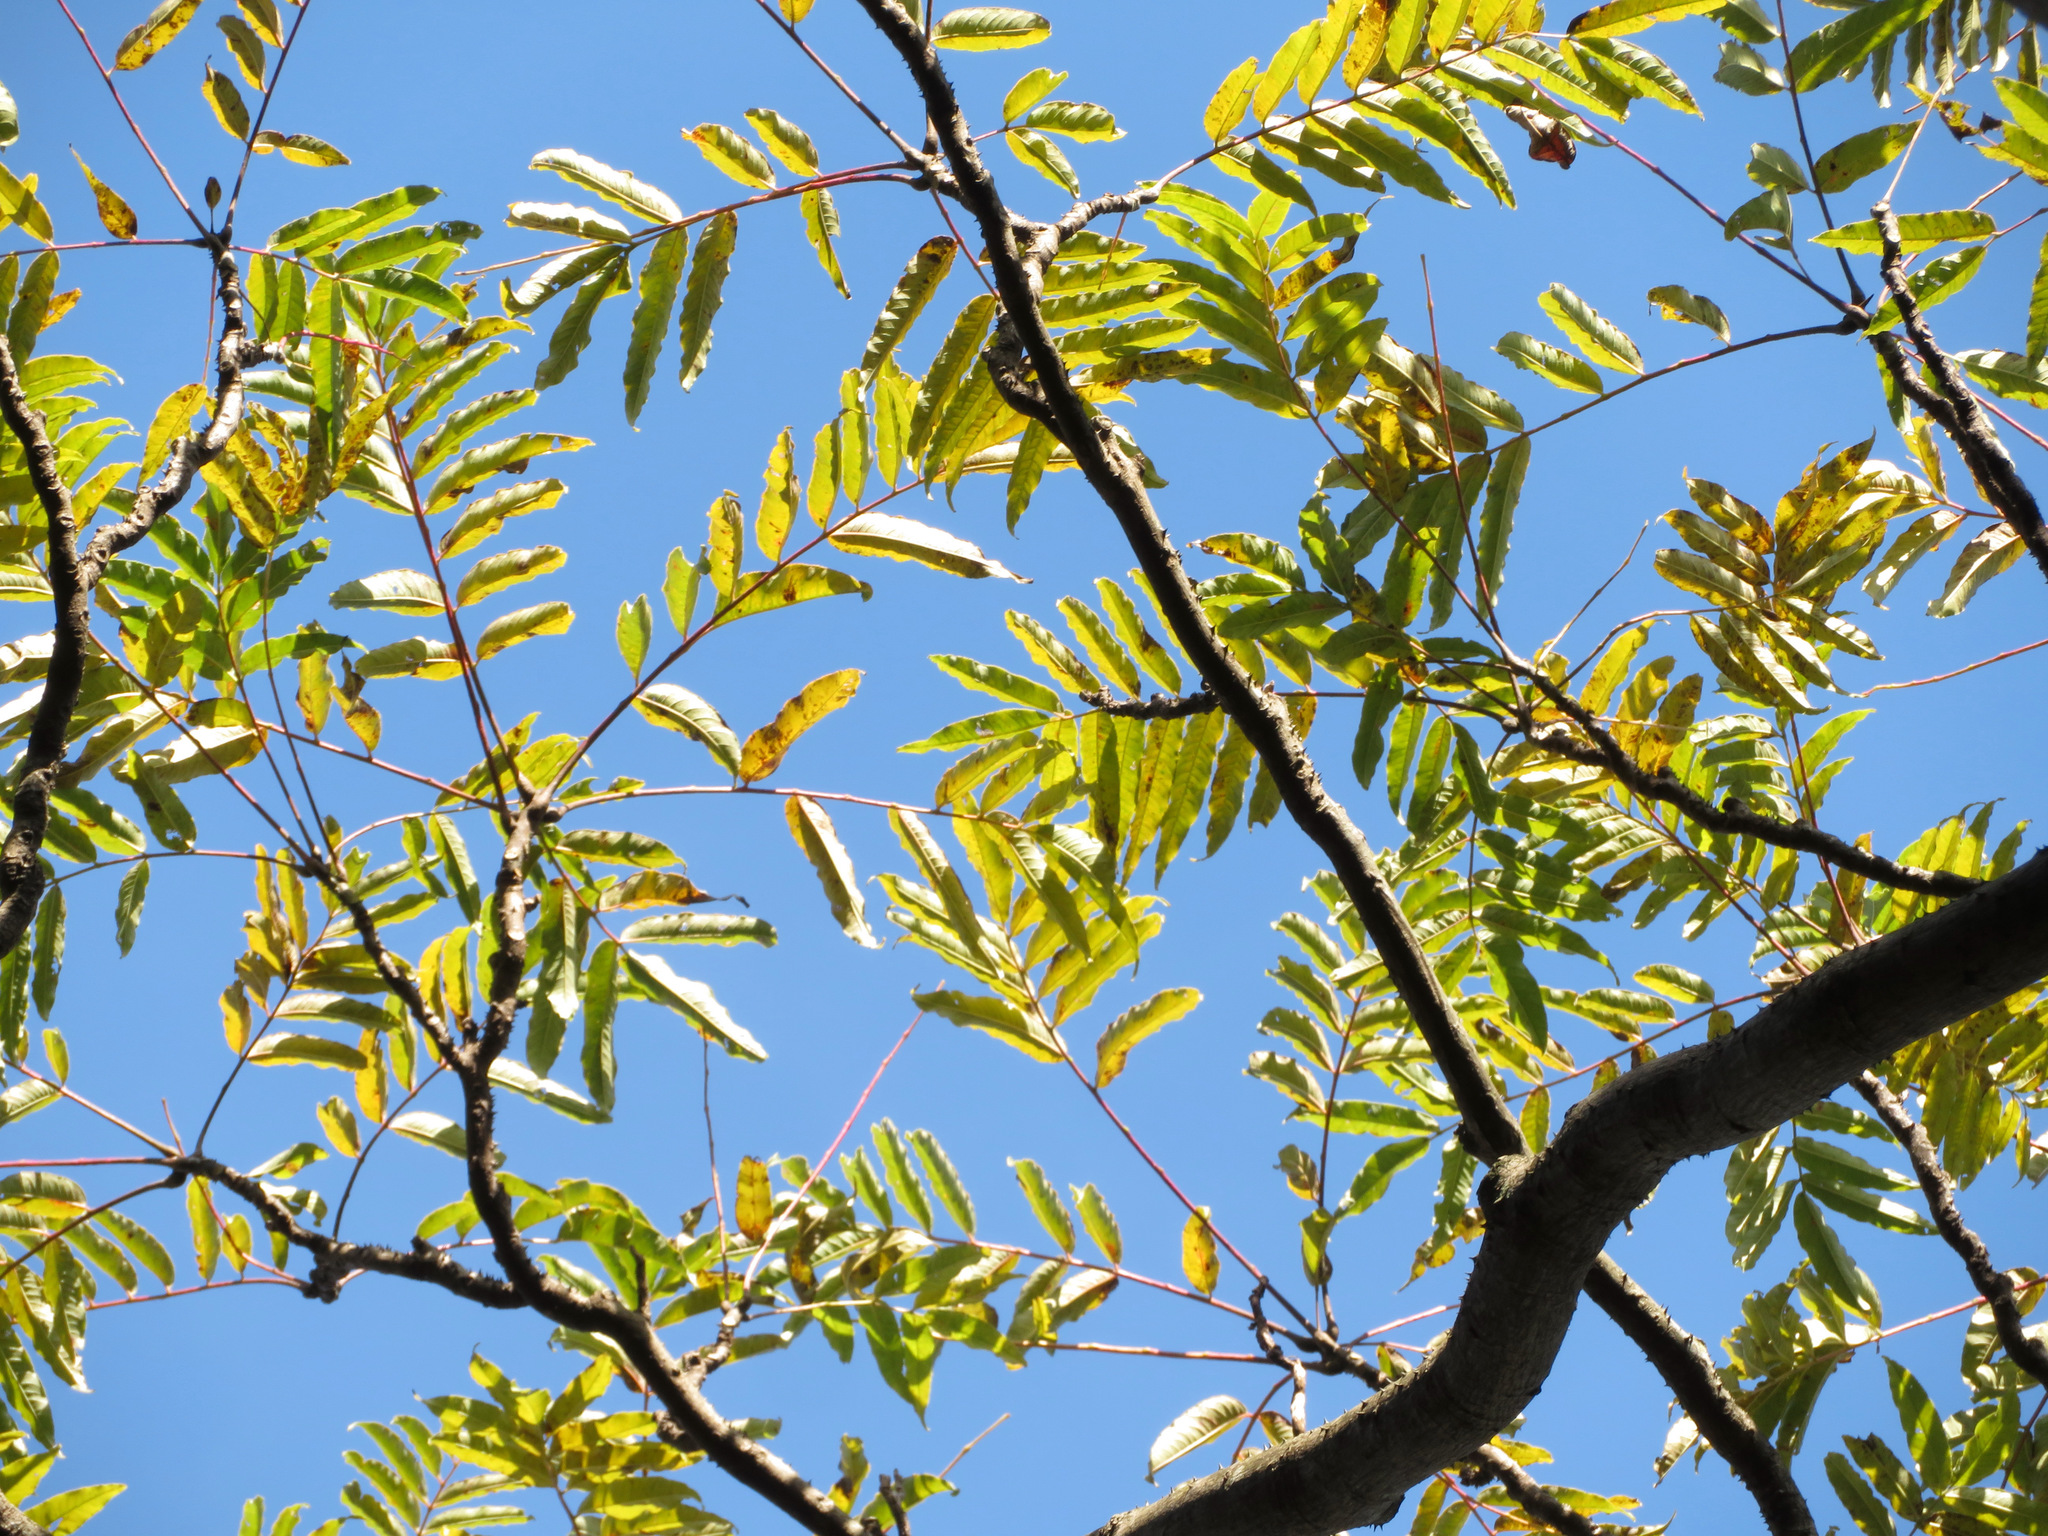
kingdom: Plantae
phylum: Tracheophyta
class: Magnoliopsida
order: Sapindales
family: Rutaceae
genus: Zanthoxylum
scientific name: Zanthoxylum ailanthoides
